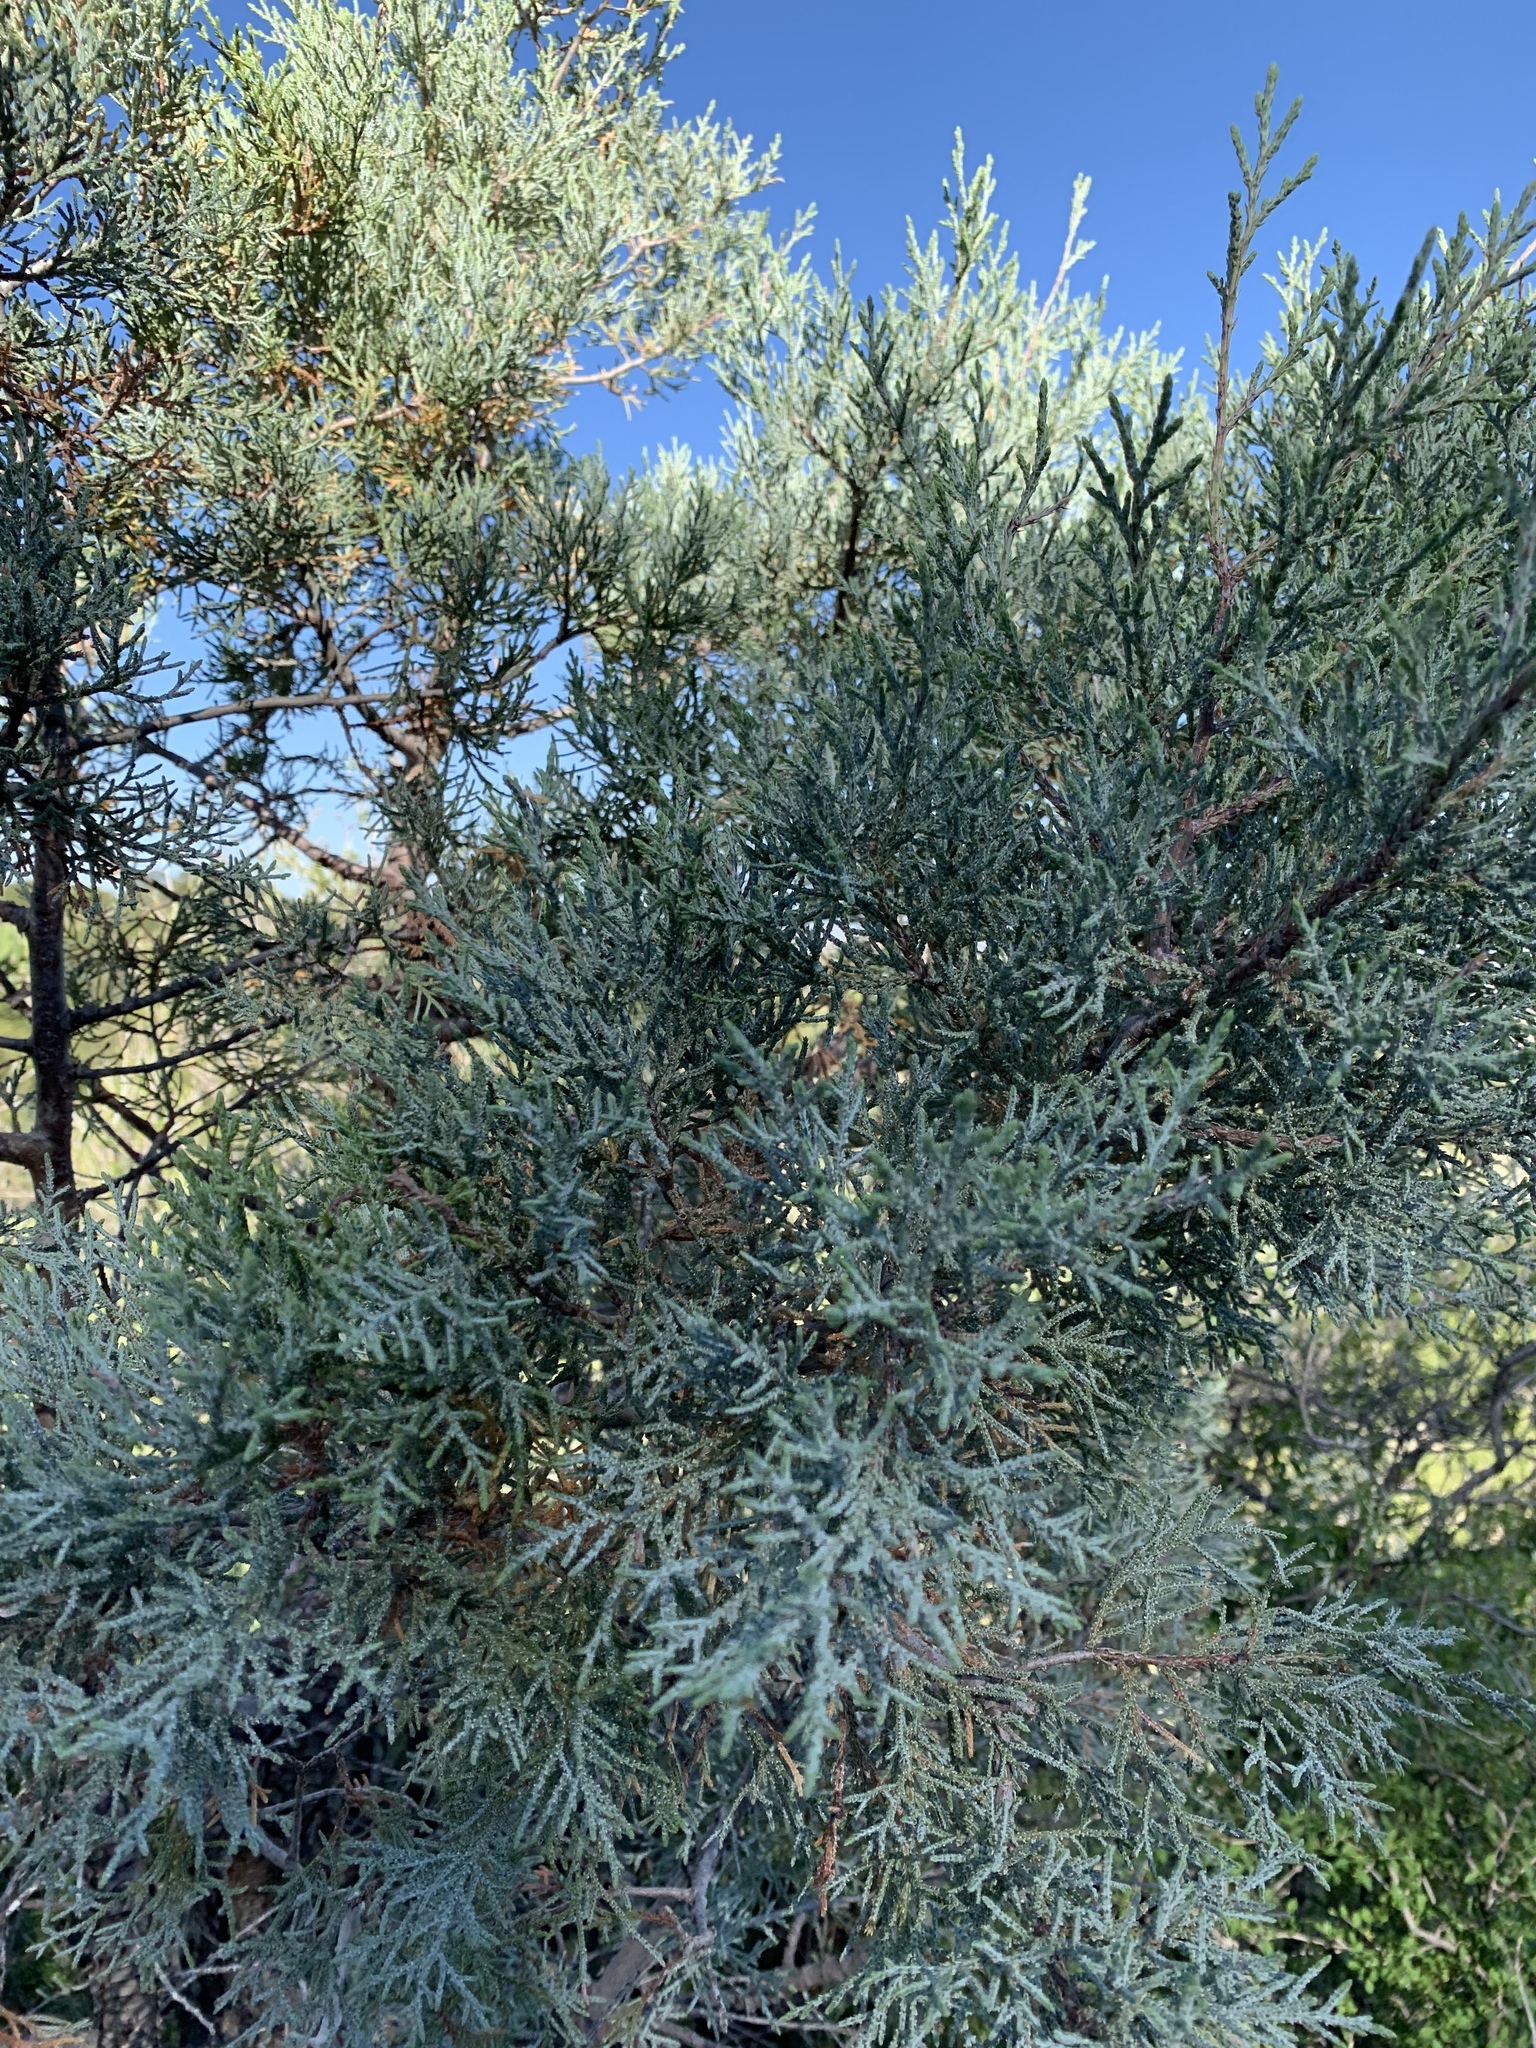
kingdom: Plantae
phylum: Tracheophyta
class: Pinopsida
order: Pinales
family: Cupressaceae
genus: Juniperus
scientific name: Juniperus deppeana
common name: Alligator juniper
